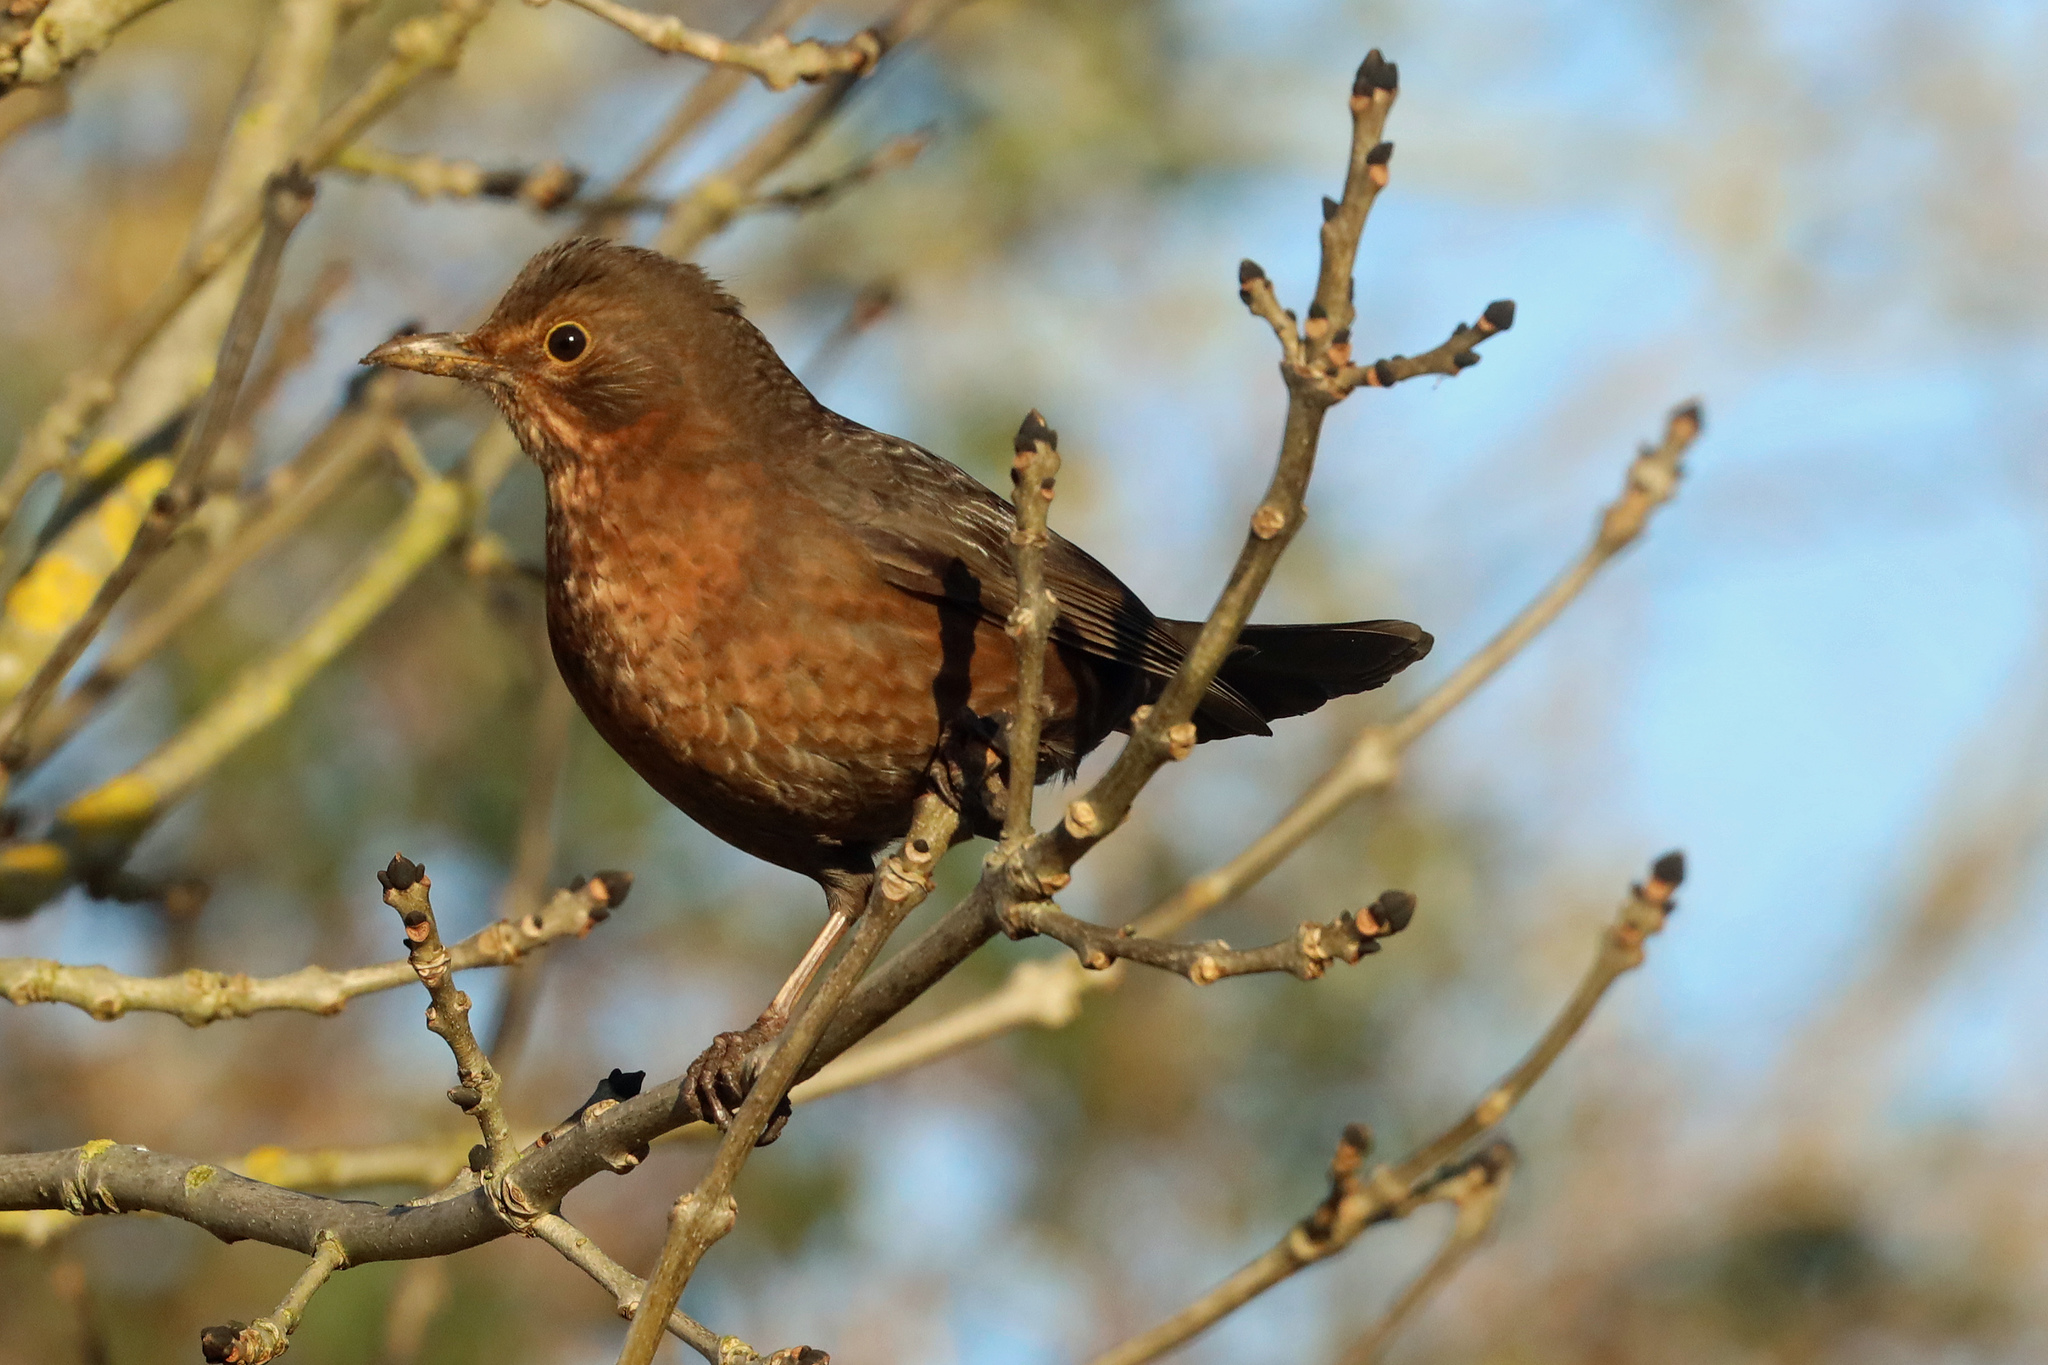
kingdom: Animalia
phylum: Chordata
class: Aves
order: Passeriformes
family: Turdidae
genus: Turdus
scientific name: Turdus merula
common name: Common blackbird
